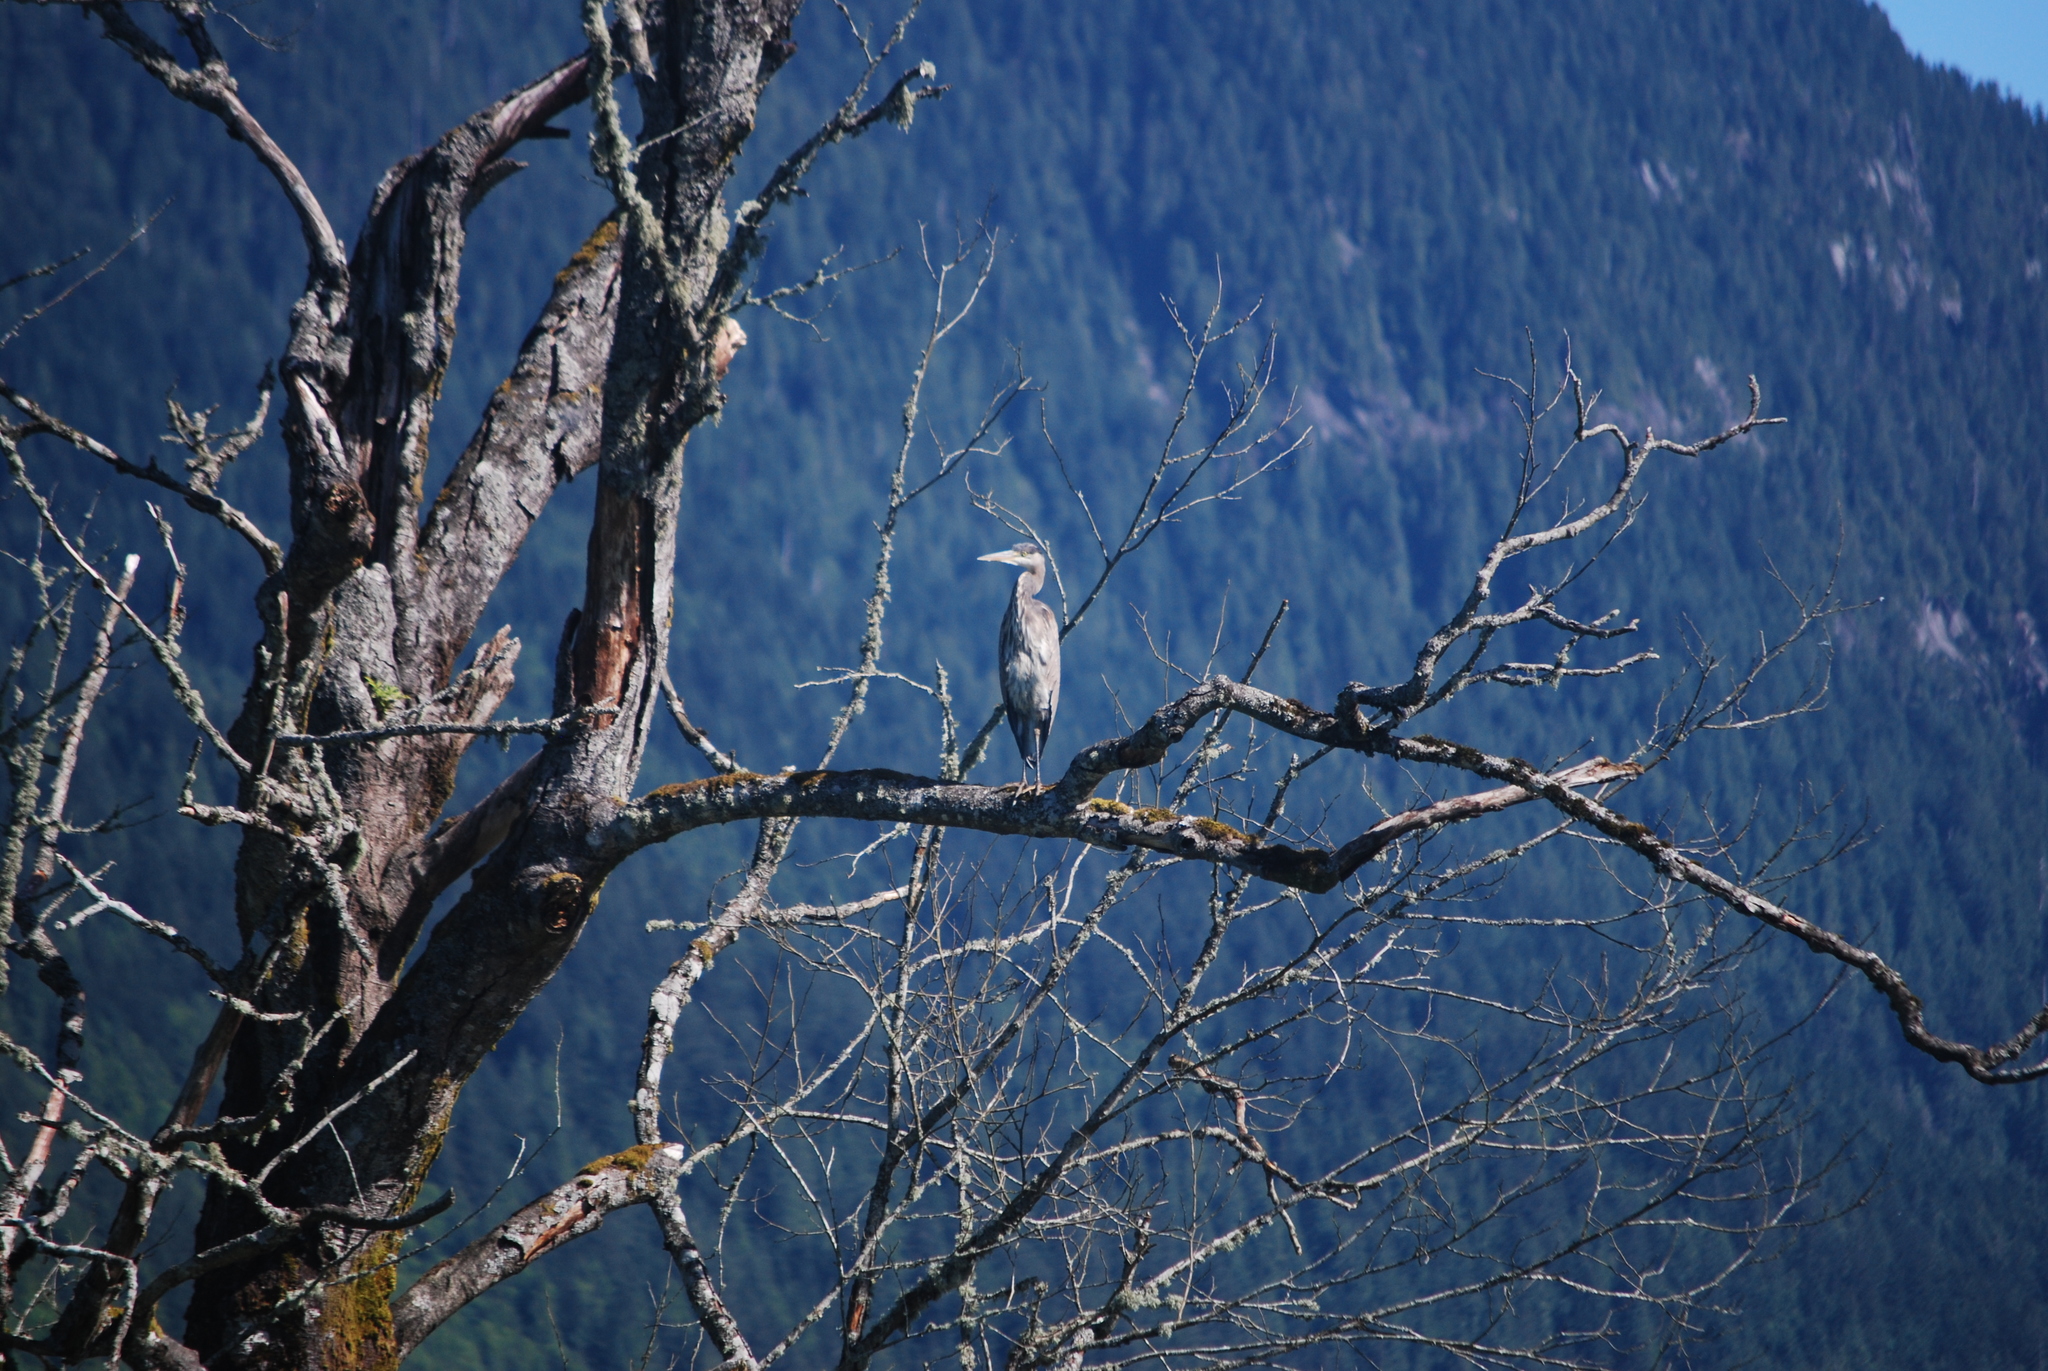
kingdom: Animalia
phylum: Chordata
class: Aves
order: Pelecaniformes
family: Ardeidae
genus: Ardea
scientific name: Ardea herodias
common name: Great blue heron
